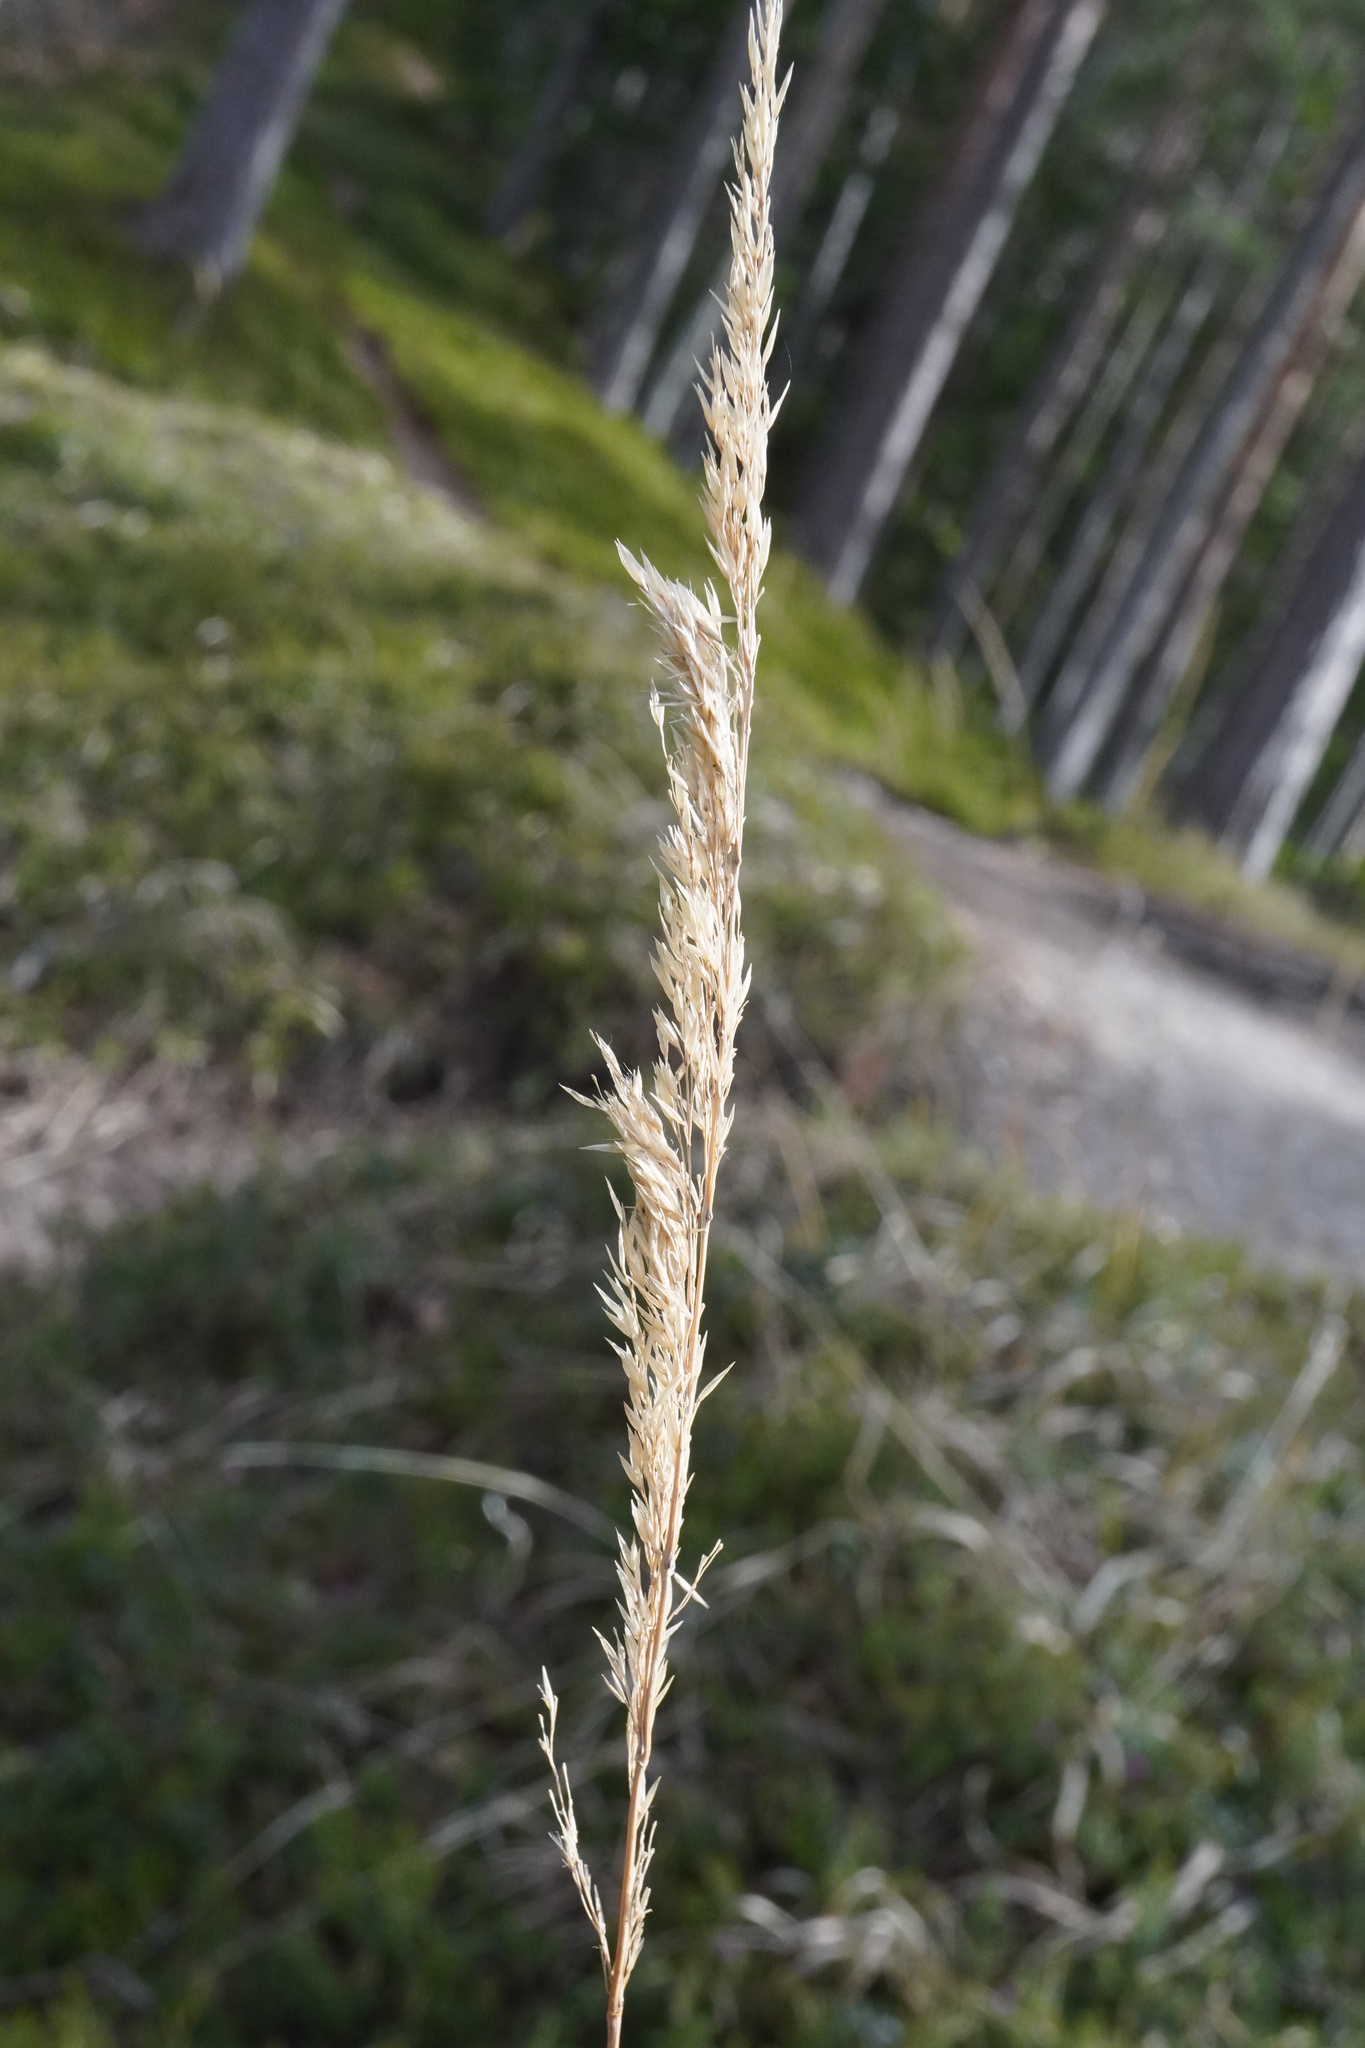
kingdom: Plantae
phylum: Tracheophyta
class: Liliopsida
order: Poales
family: Poaceae
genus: Calamagrostis
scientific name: Calamagrostis epigejos
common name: Wood small-reed
